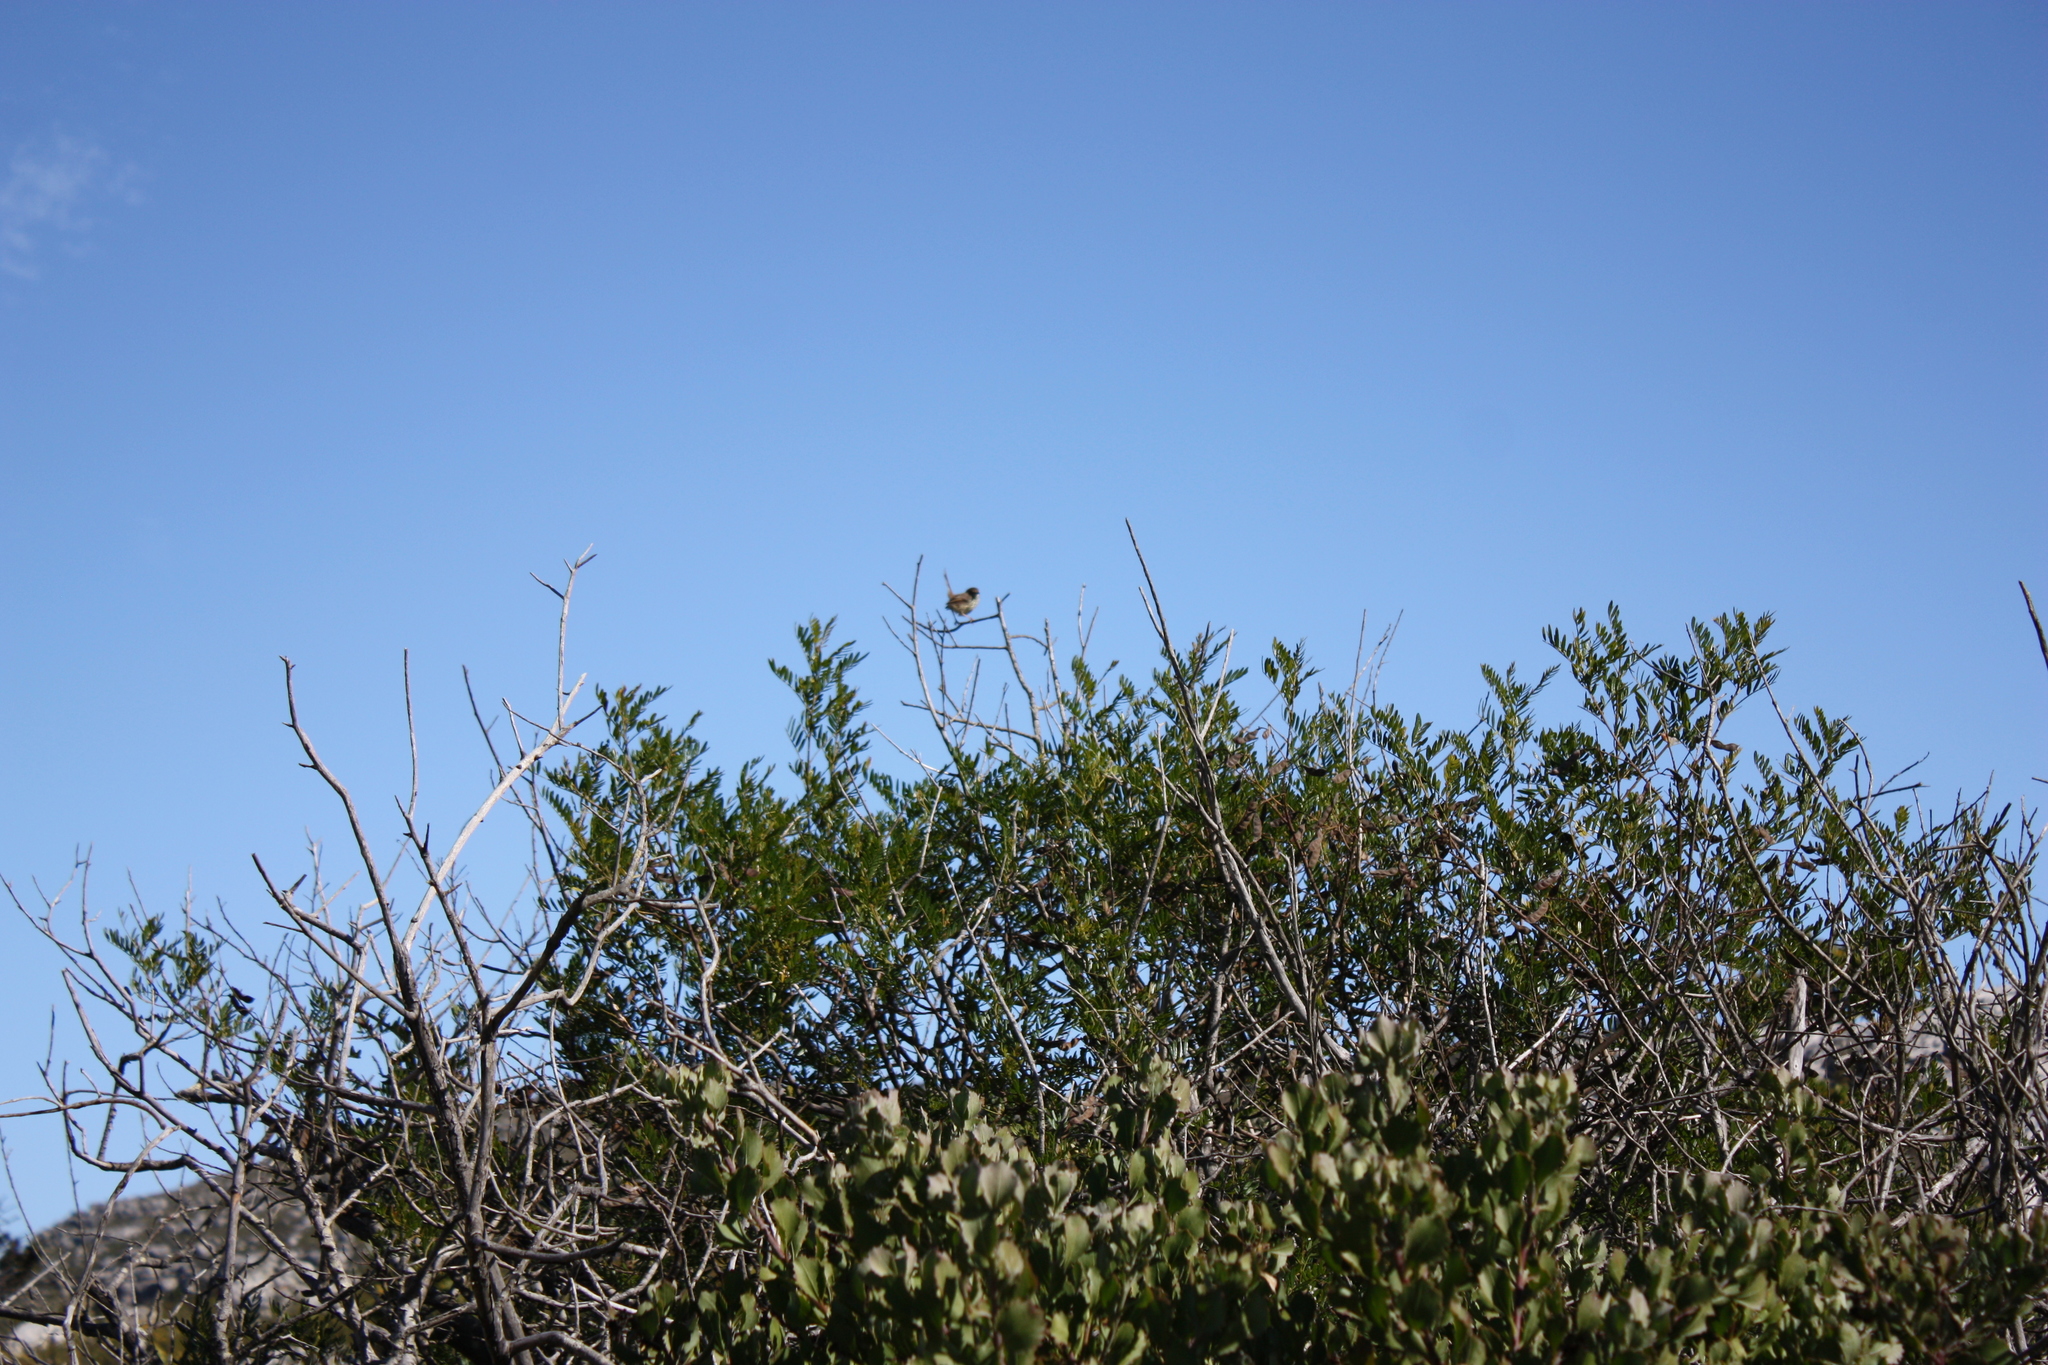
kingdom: Animalia
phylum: Chordata
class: Aves
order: Passeriformes
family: Cisticolidae
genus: Prinia
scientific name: Prinia maculosa
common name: Karoo prinia
